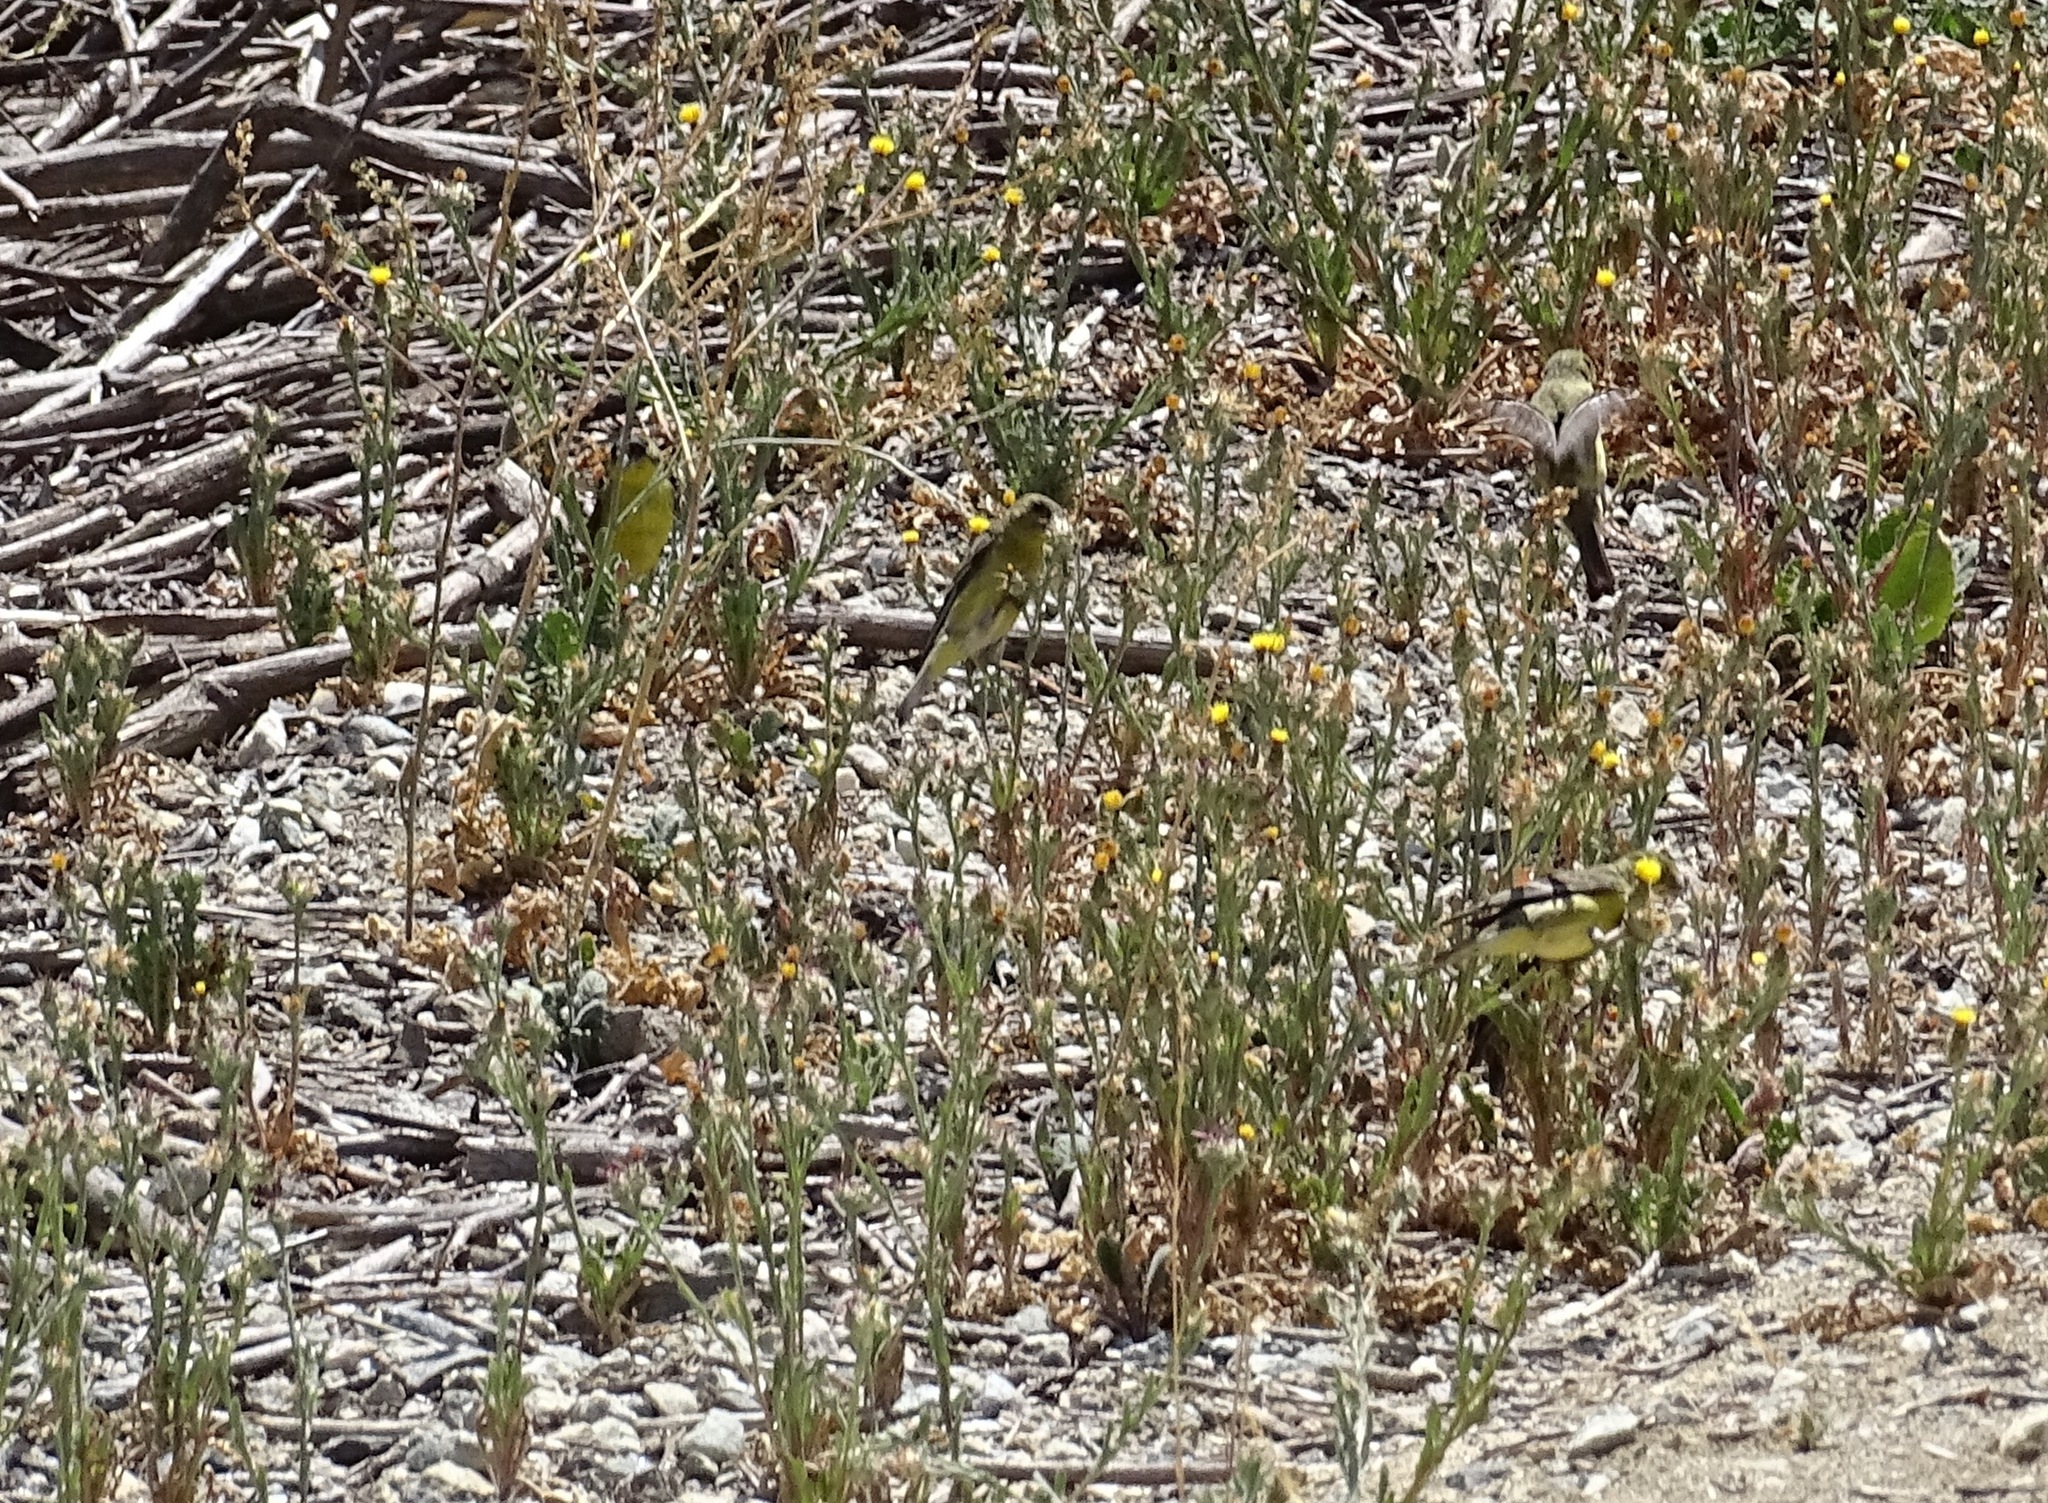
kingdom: Animalia
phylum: Chordata
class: Aves
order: Passeriformes
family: Fringillidae
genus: Spinus
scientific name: Spinus psaltria
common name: Lesser goldfinch
